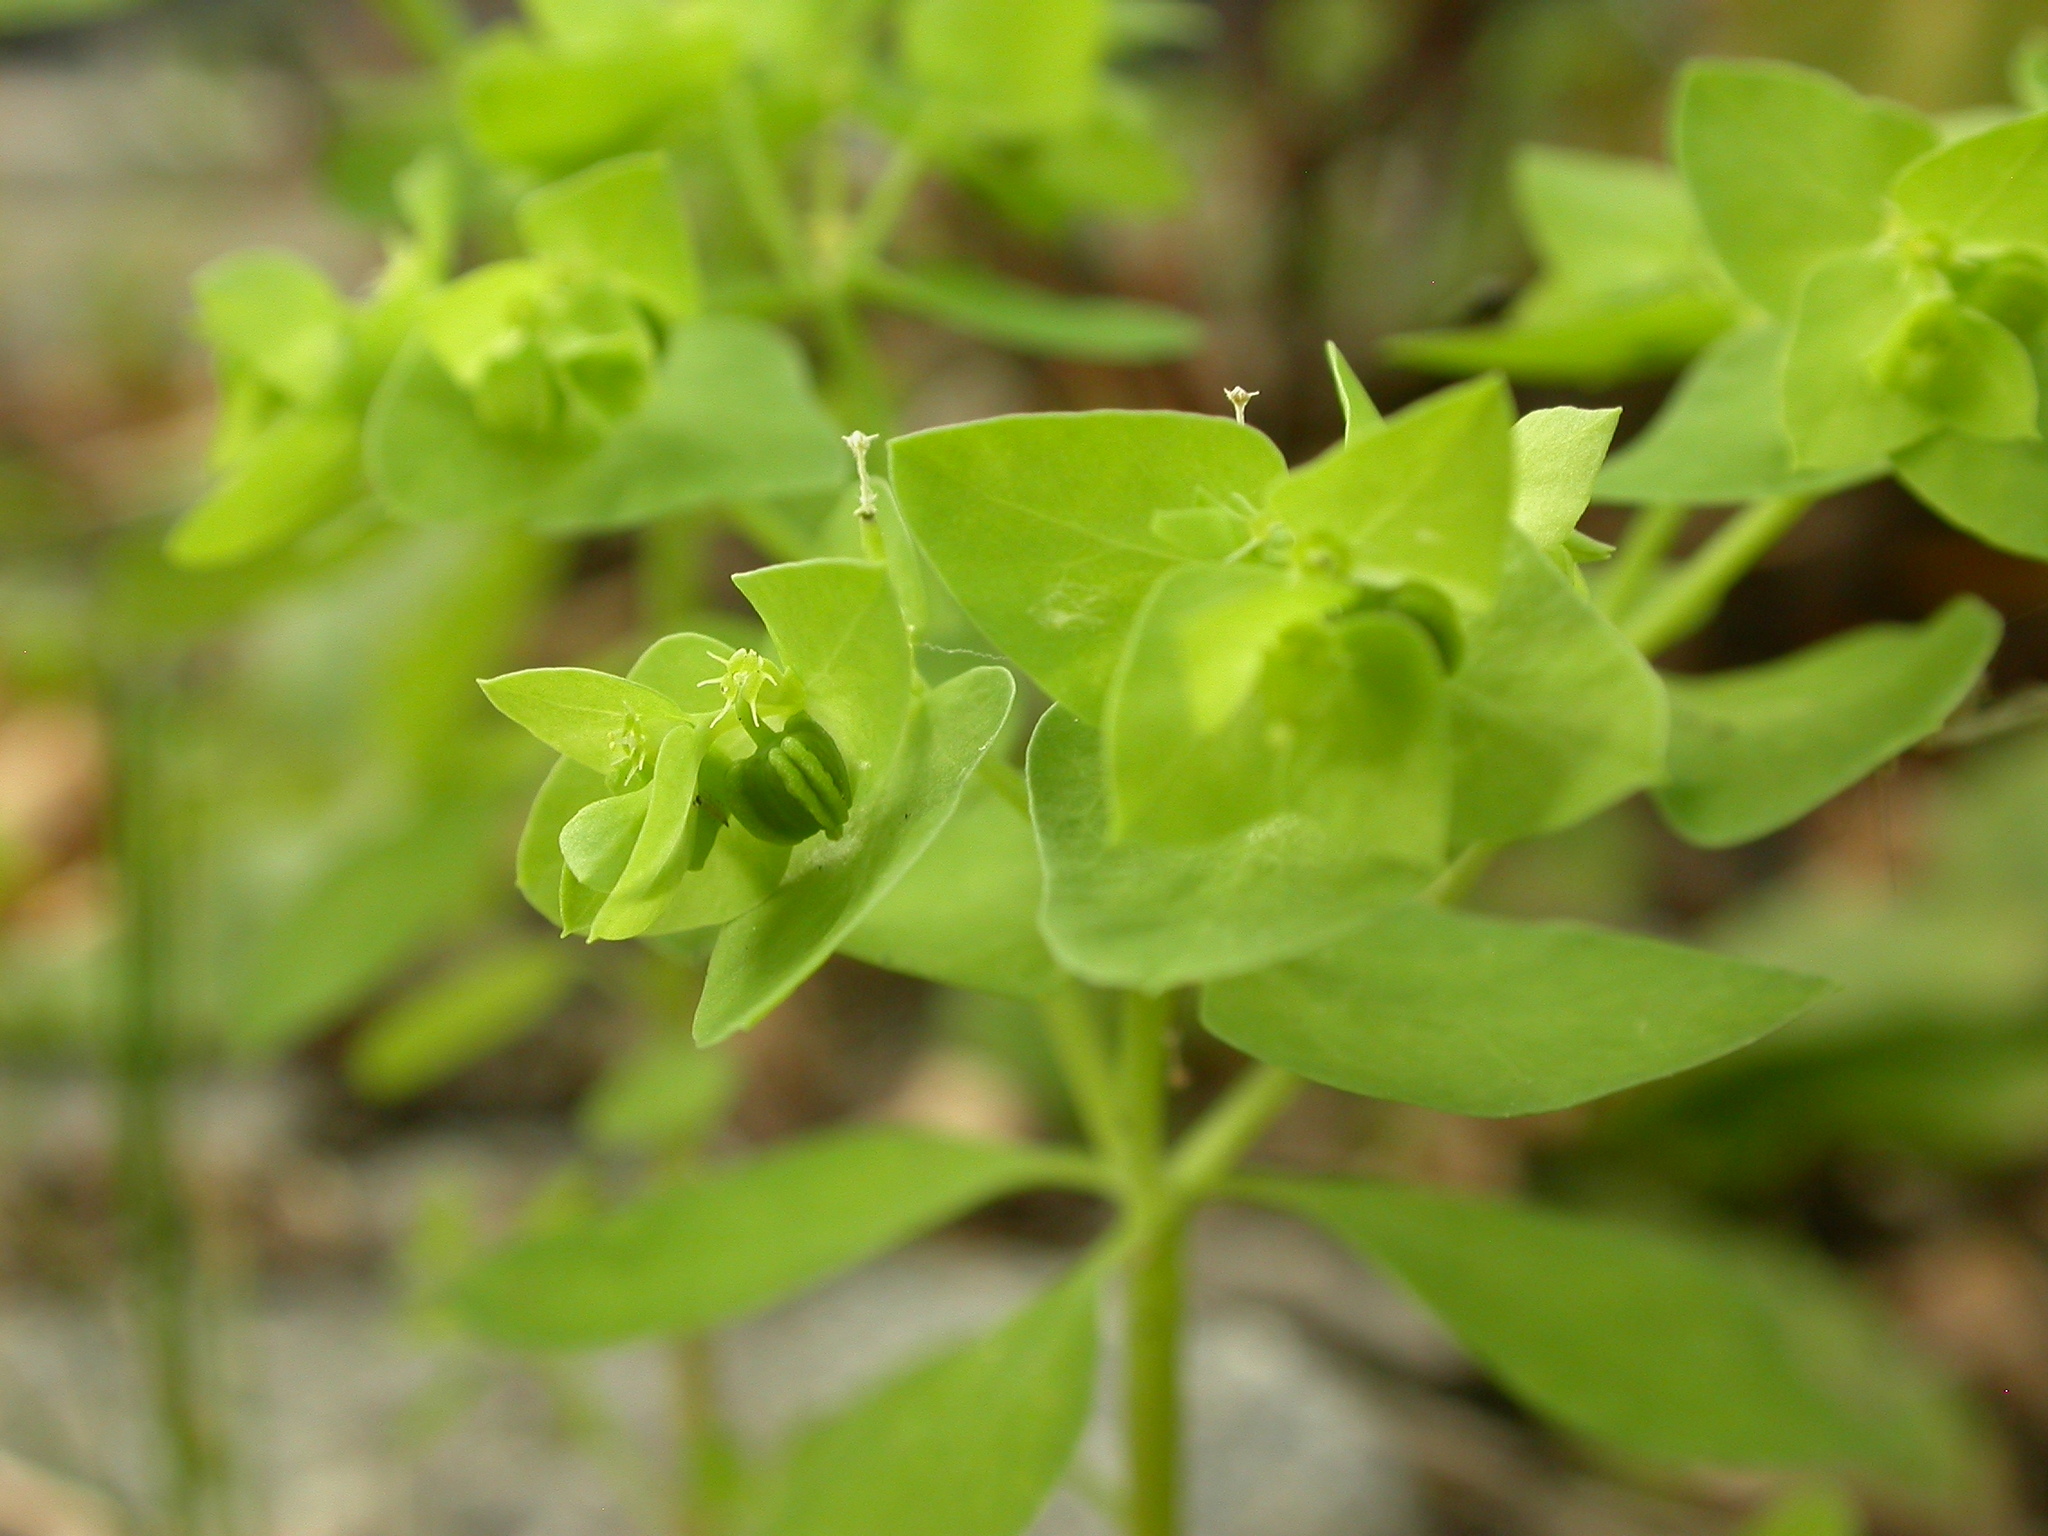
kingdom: Plantae
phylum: Tracheophyta
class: Magnoliopsida
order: Malpighiales
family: Euphorbiaceae
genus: Euphorbia
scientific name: Euphorbia peplus
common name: Petty spurge
